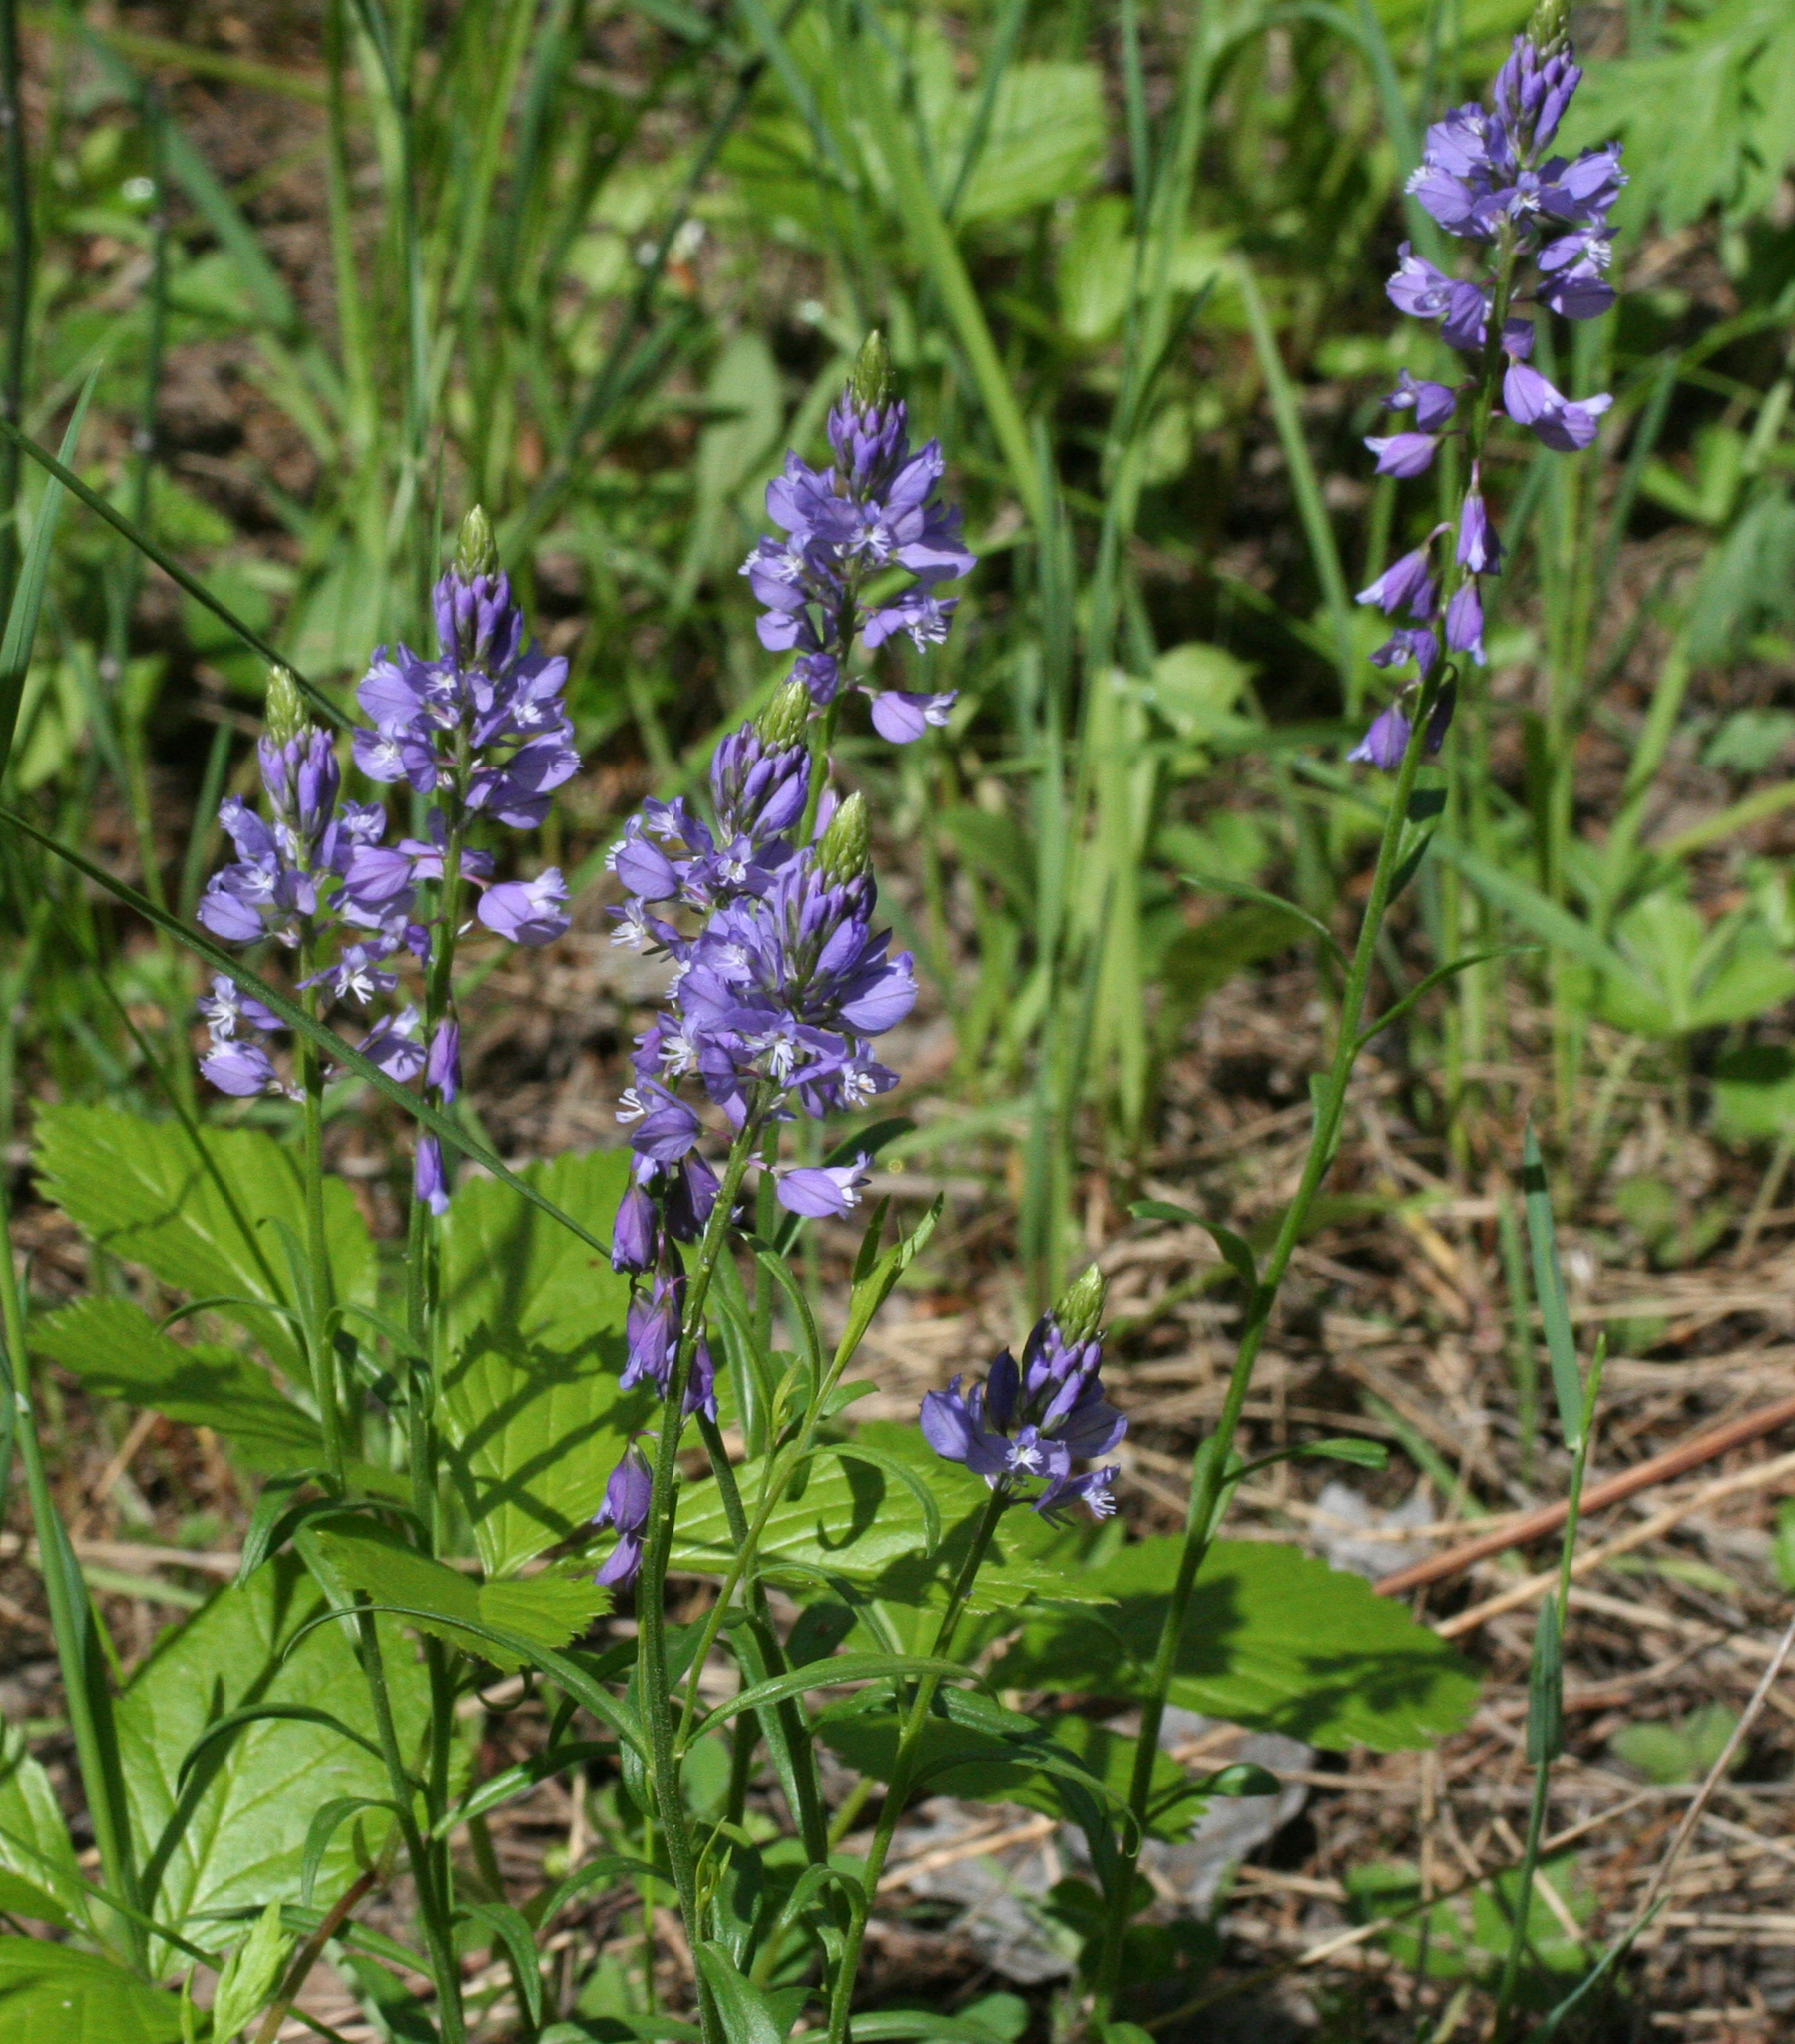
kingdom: Plantae
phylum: Tracheophyta
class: Magnoliopsida
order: Fabales
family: Polygalaceae
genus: Polygala
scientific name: Polygala comosa
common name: Tufted milkwort
